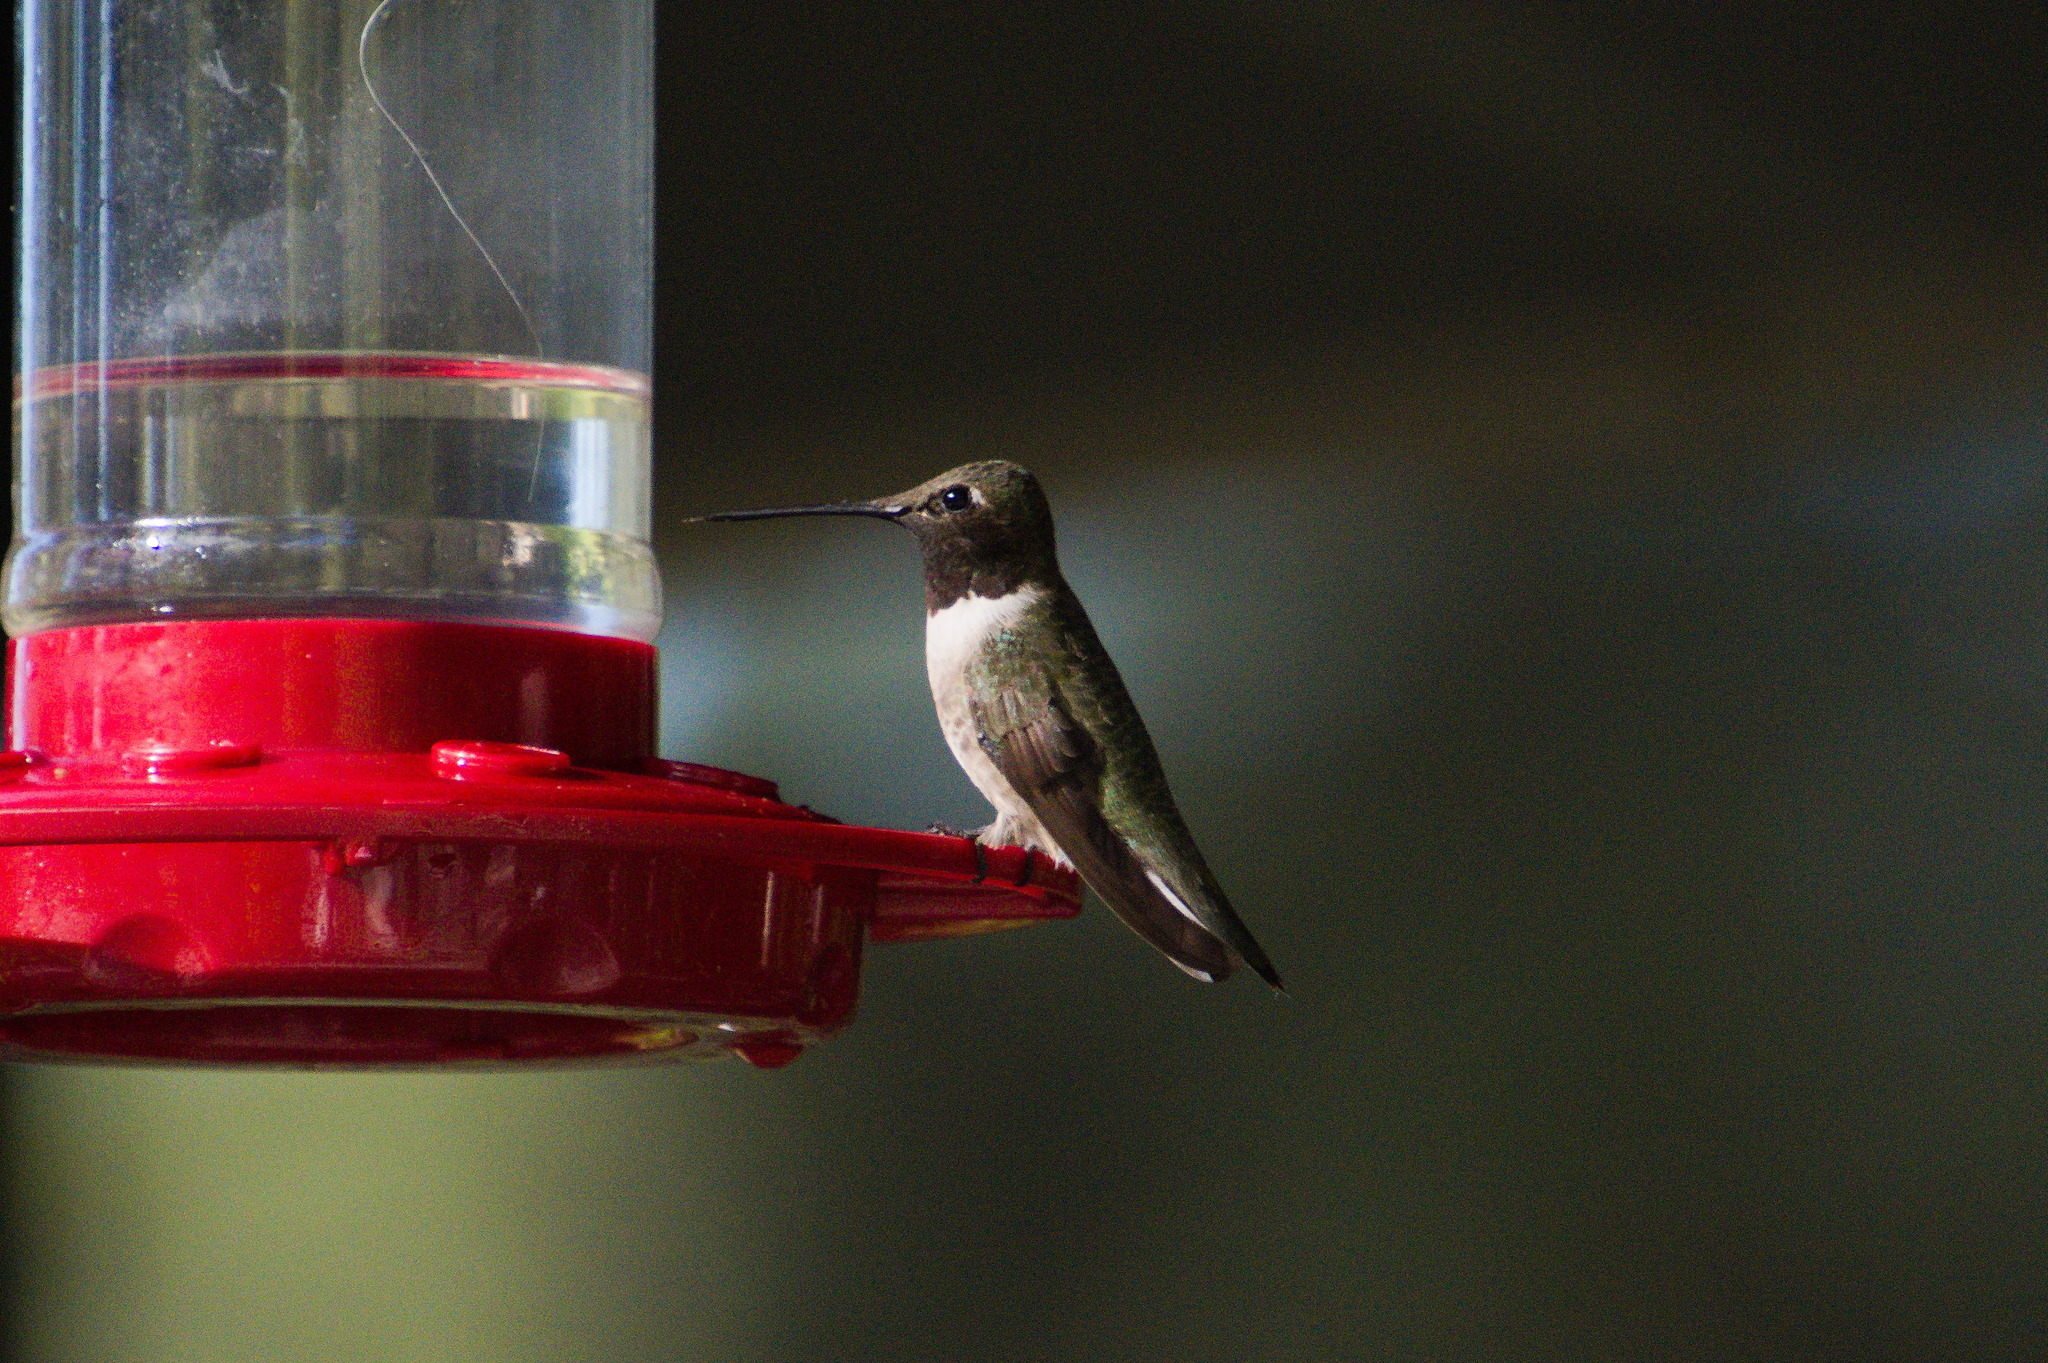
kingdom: Animalia
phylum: Chordata
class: Aves
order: Apodiformes
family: Trochilidae
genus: Archilochus
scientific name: Archilochus alexandri
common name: Black-chinned hummingbird
